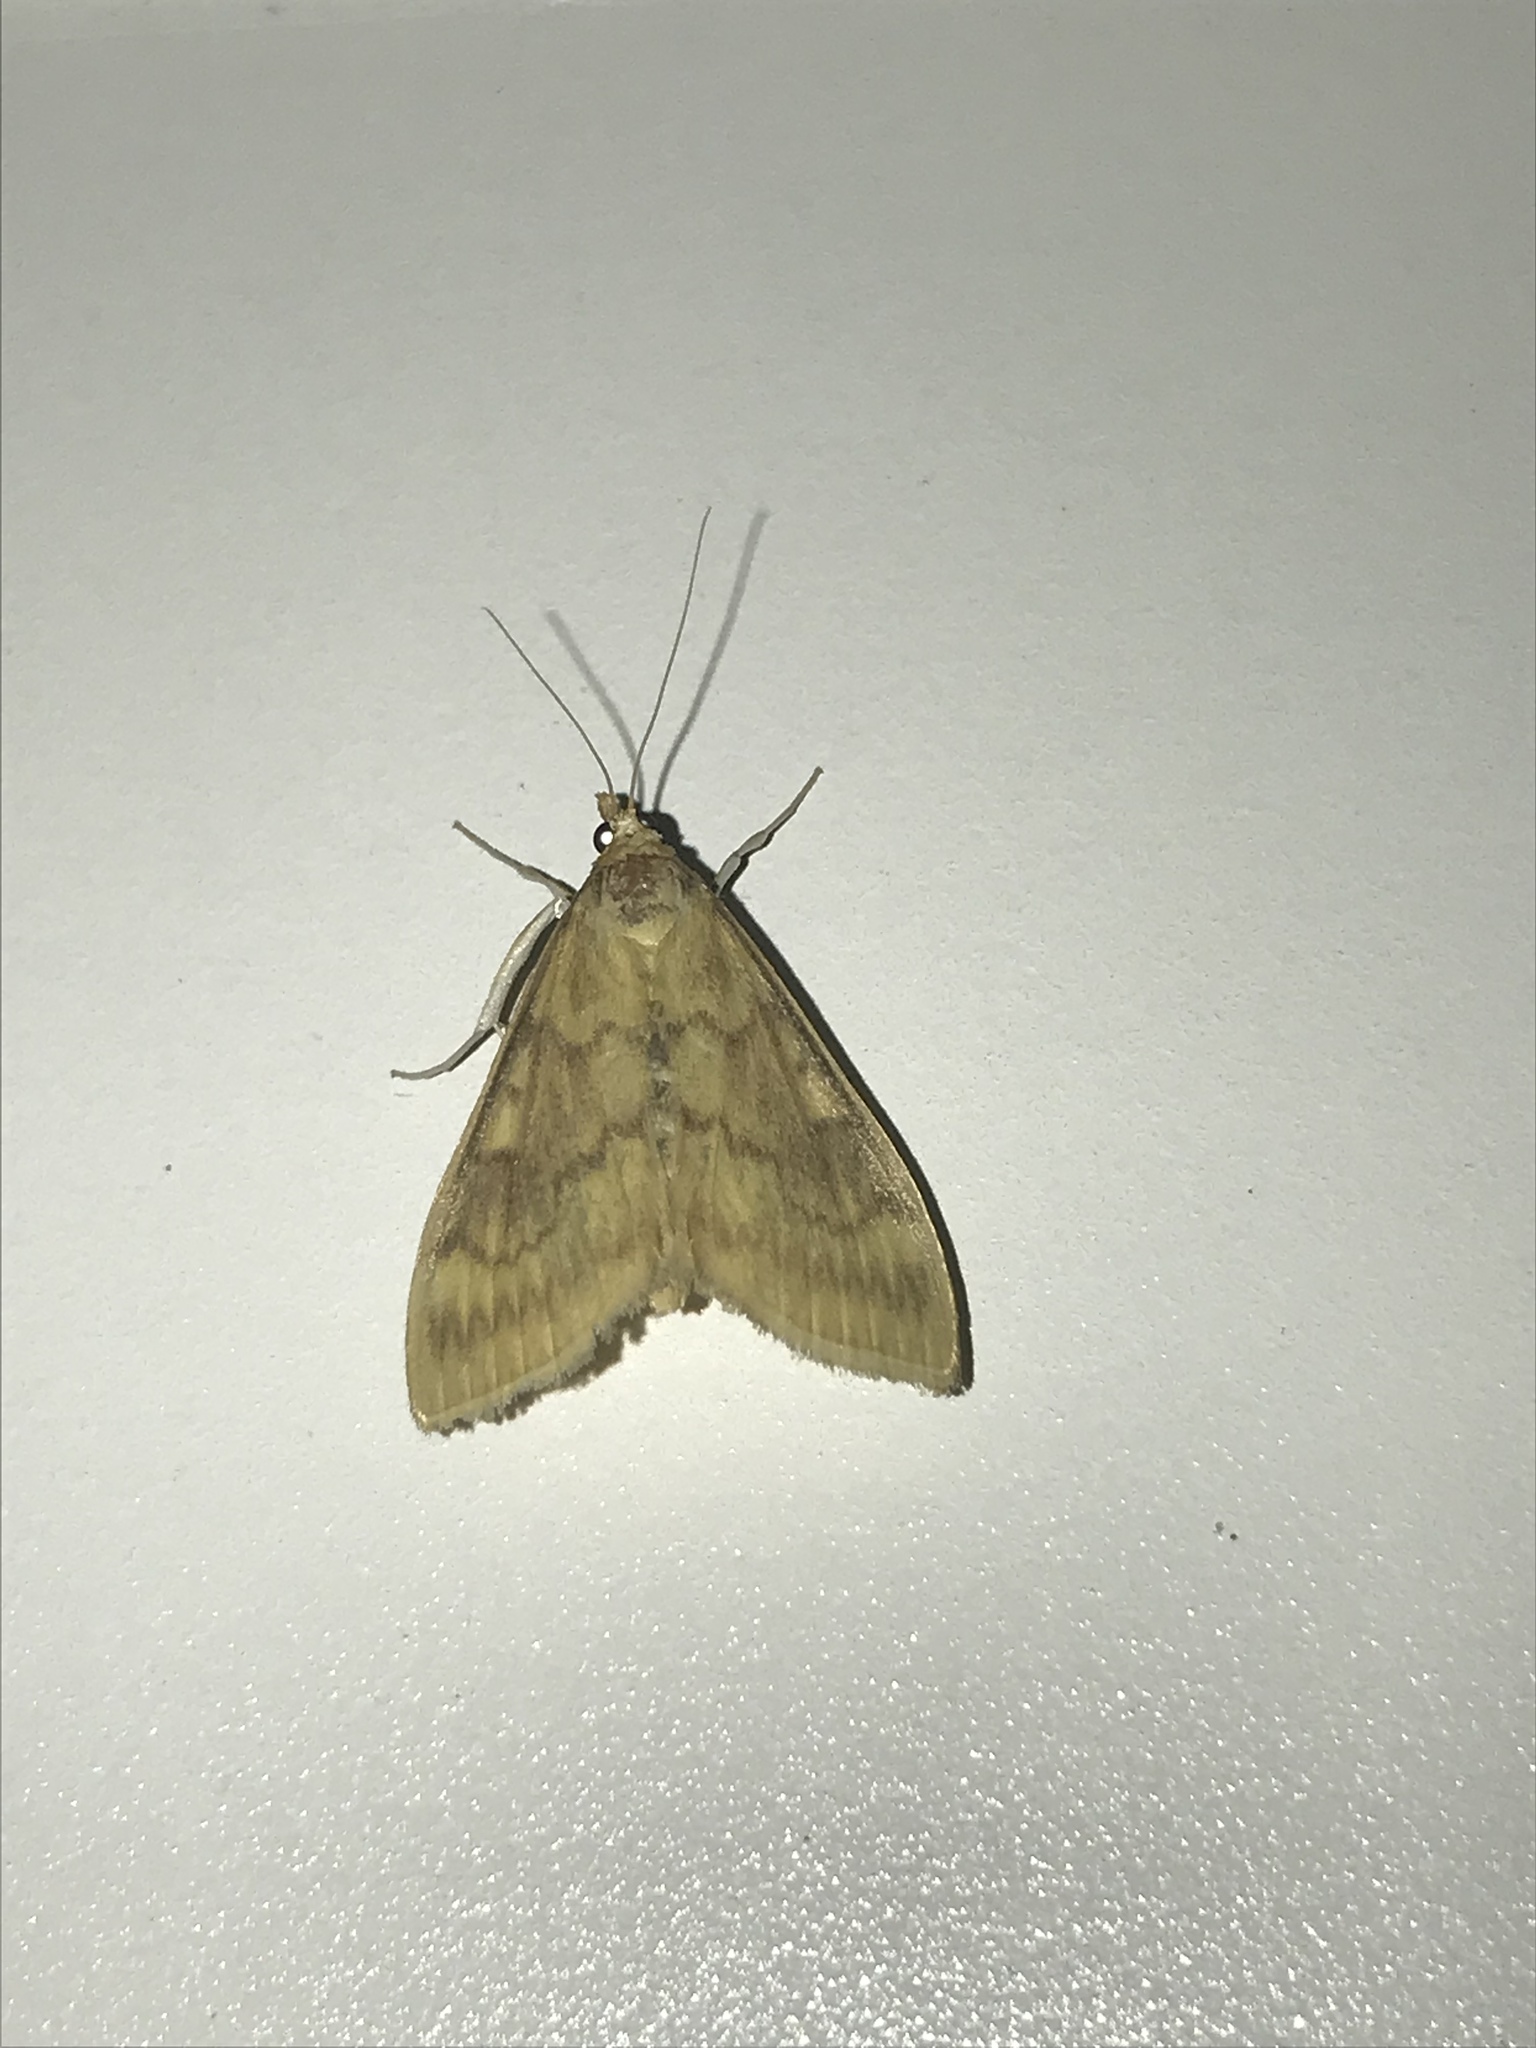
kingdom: Animalia
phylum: Arthropoda
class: Insecta
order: Lepidoptera
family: Crambidae
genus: Ostrinia
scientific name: Ostrinia nubilalis
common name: European corn borer
